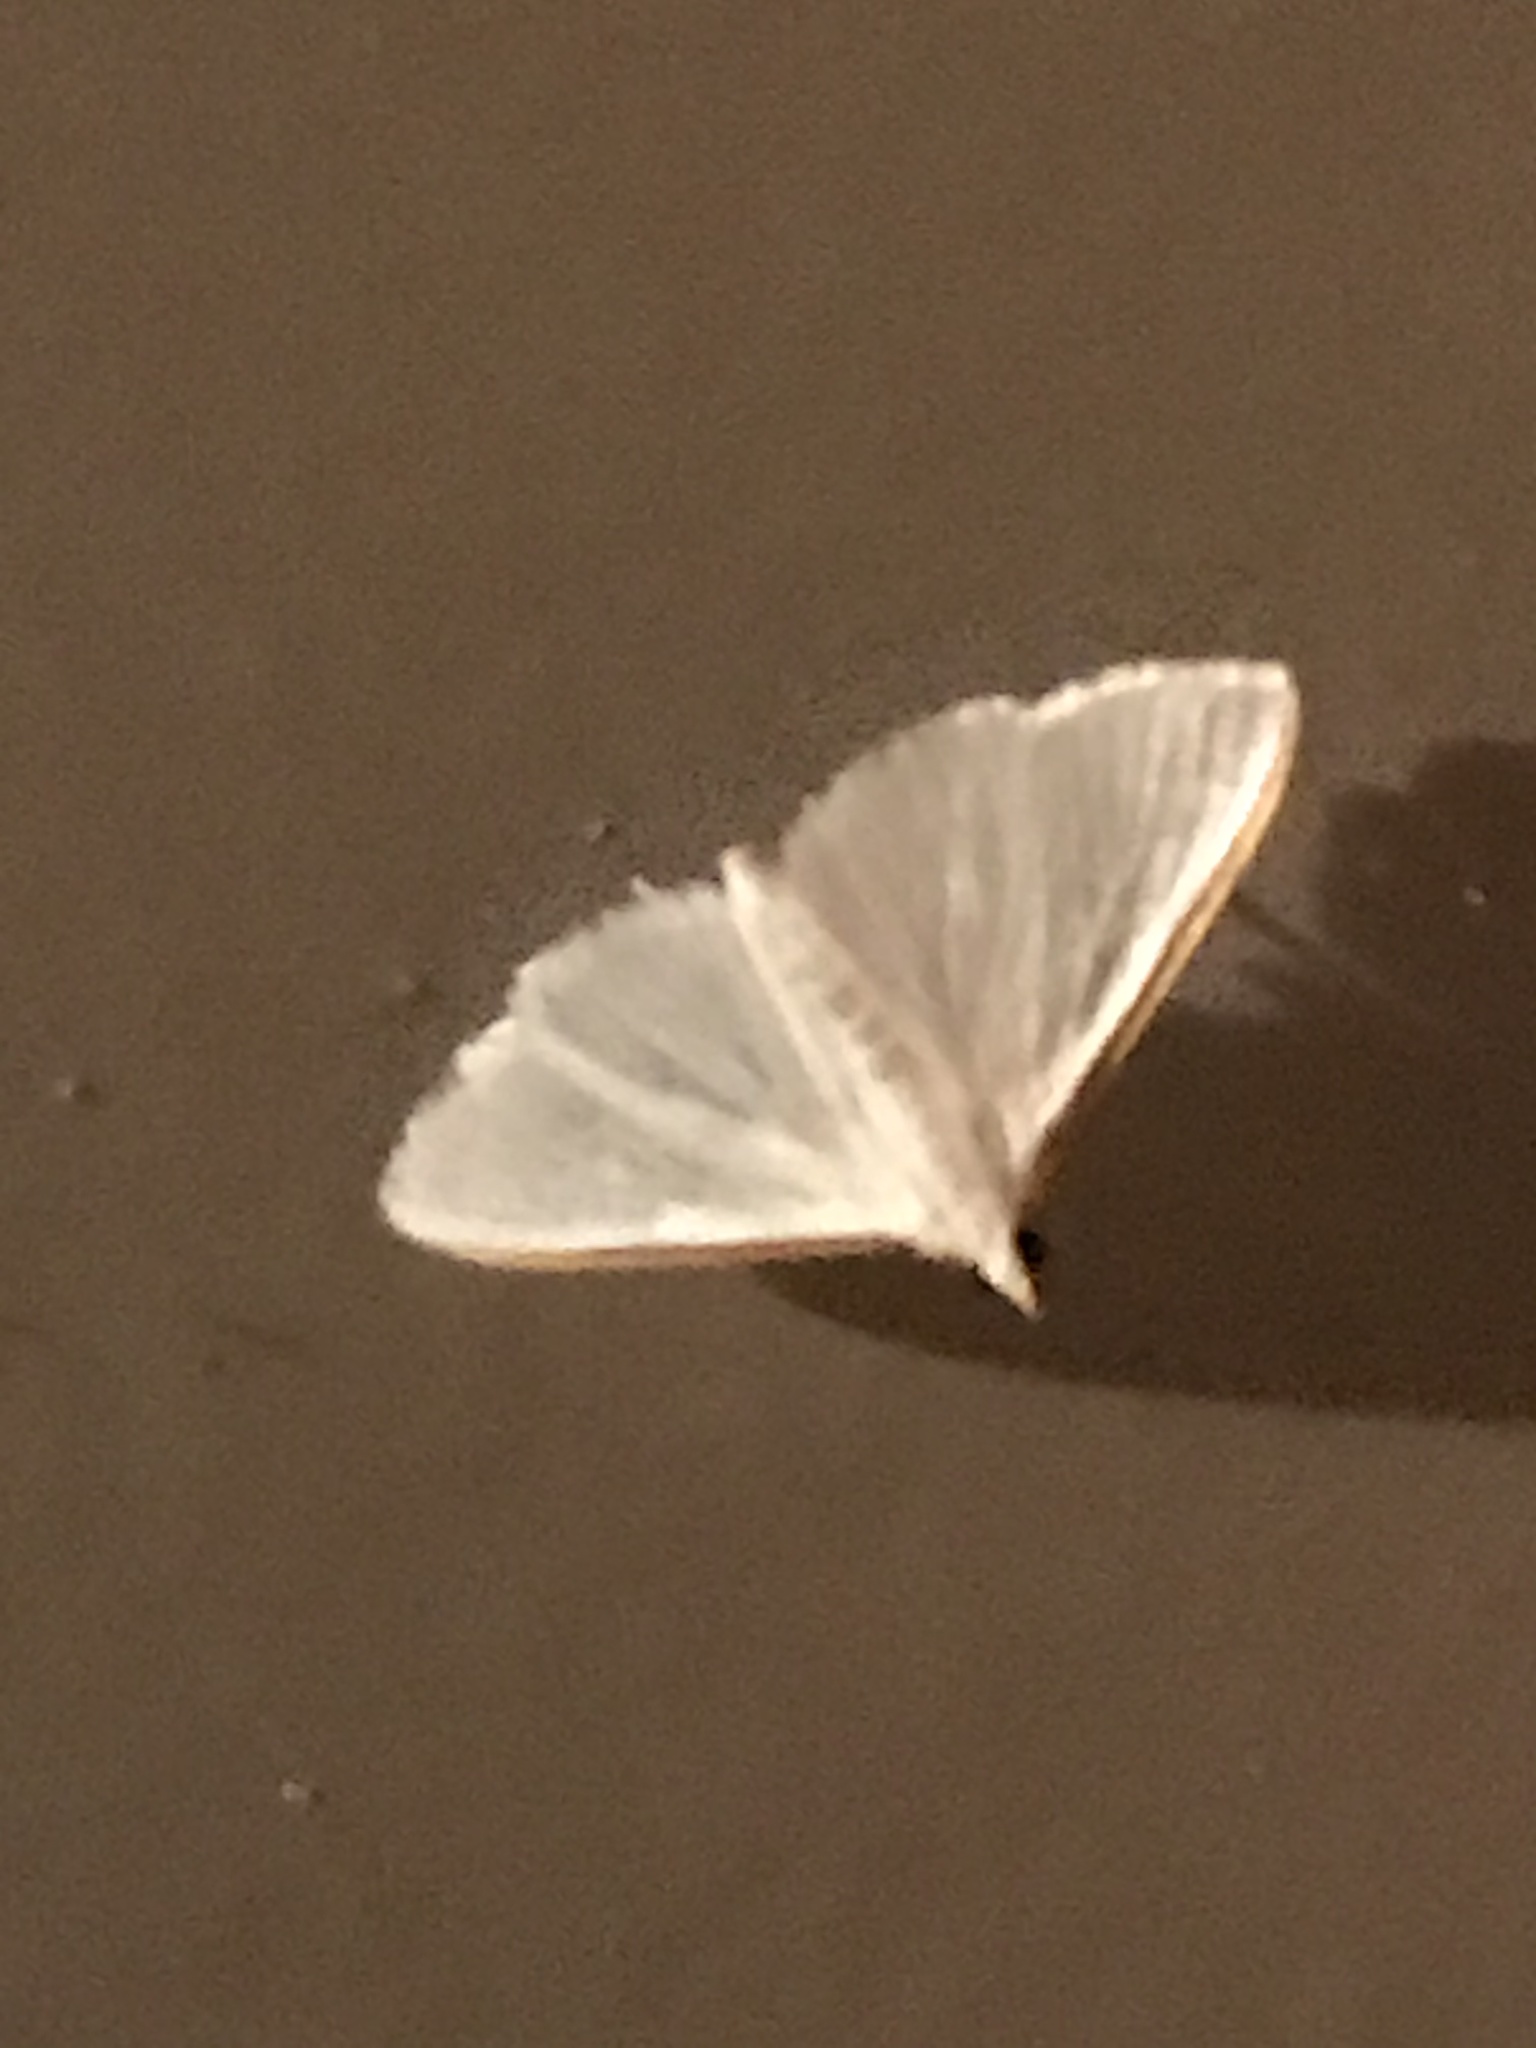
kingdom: Animalia
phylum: Arthropoda
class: Insecta
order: Lepidoptera
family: Crambidae
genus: Diaphania
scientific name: Diaphania costata
